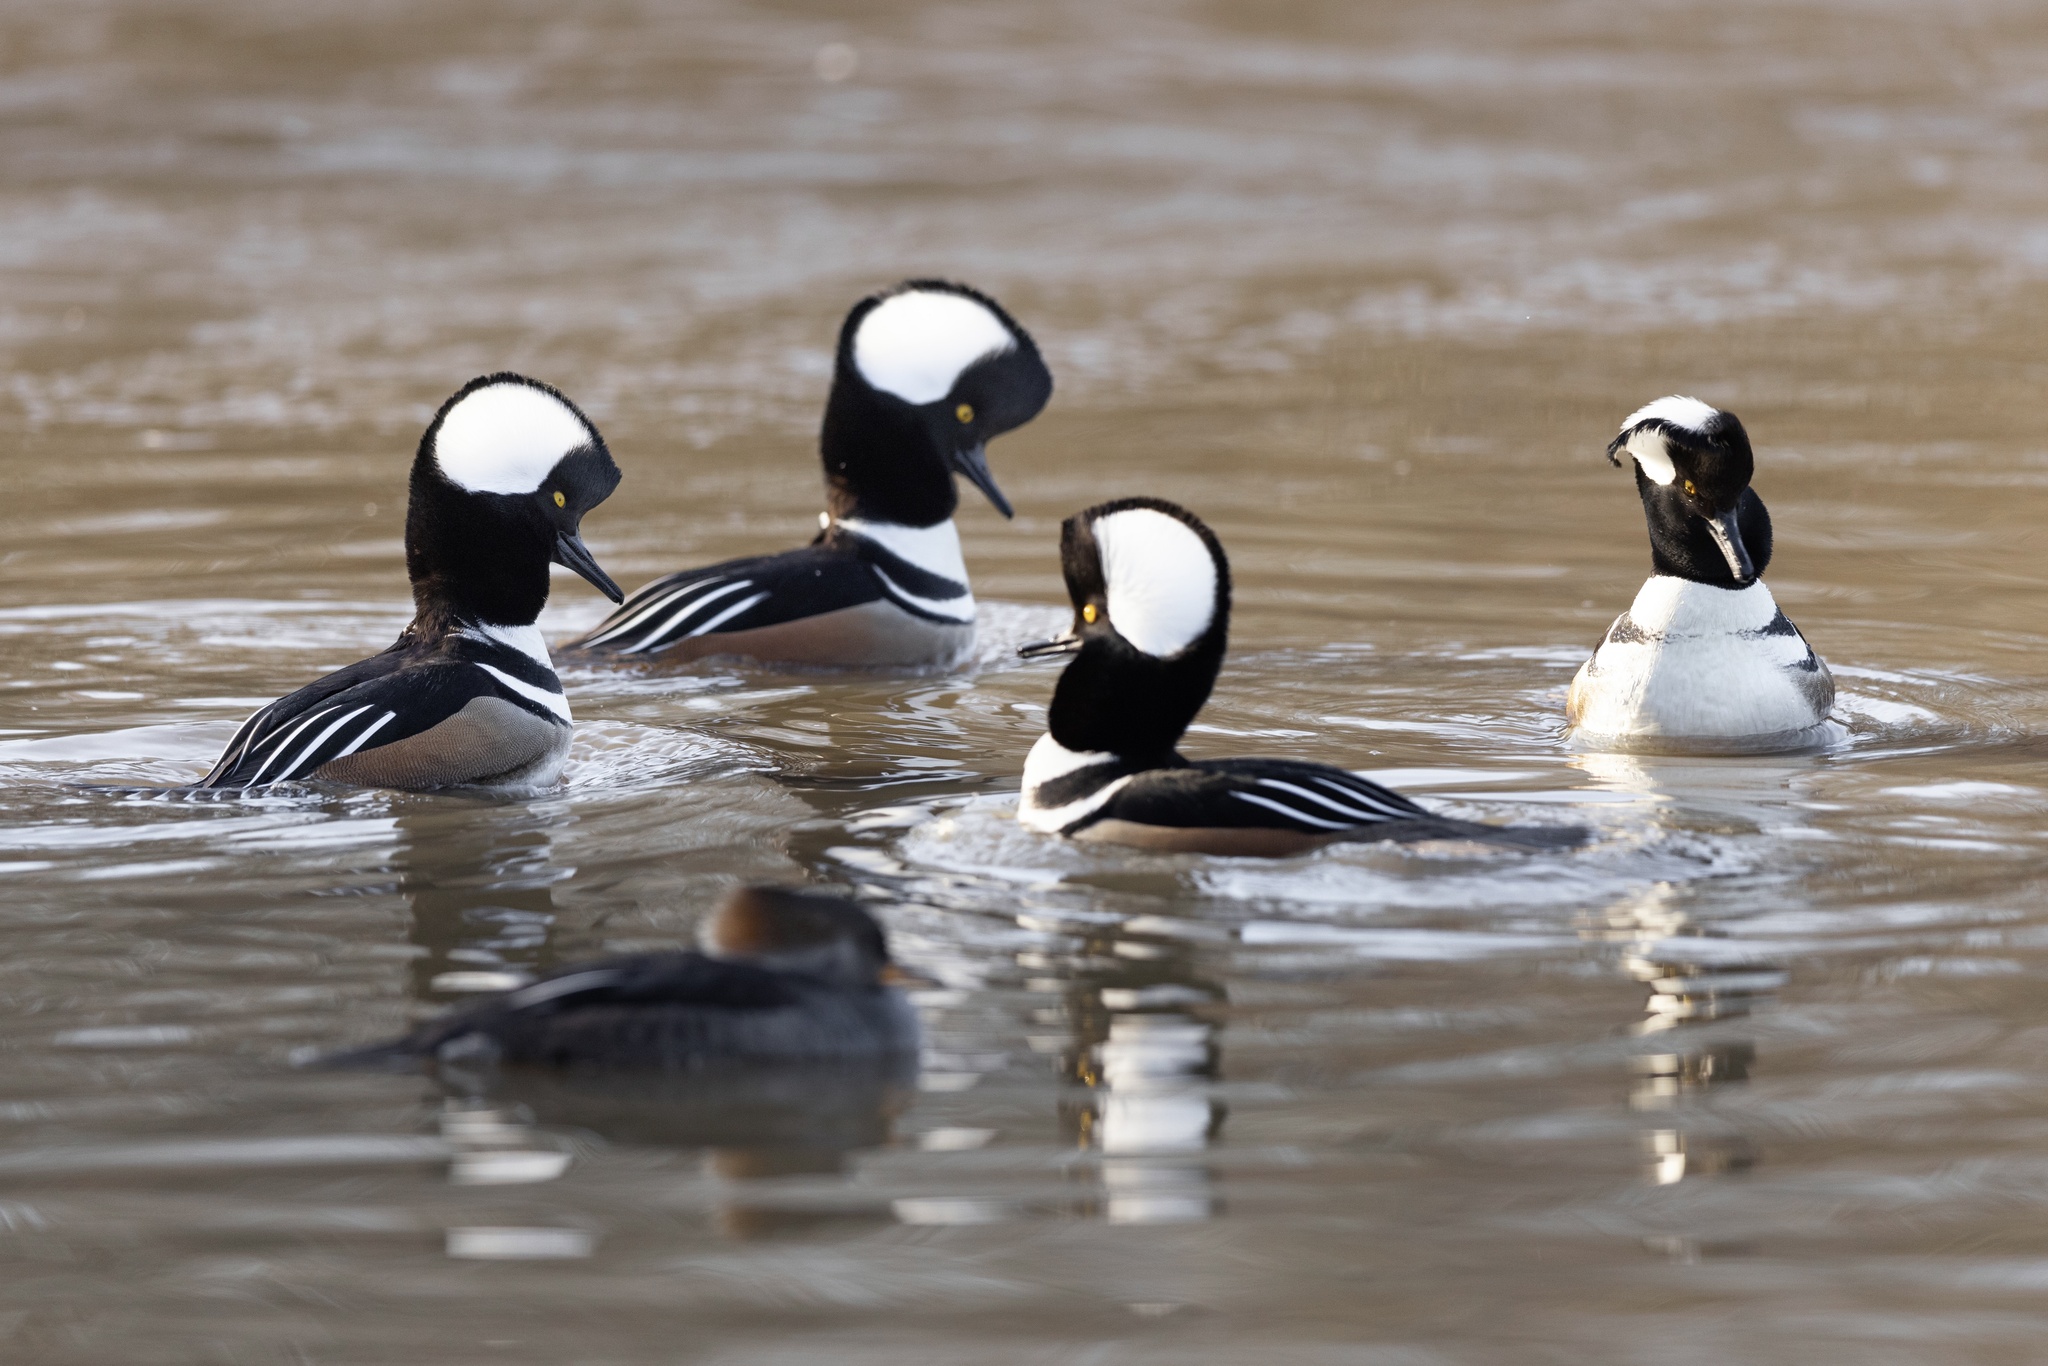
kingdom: Animalia
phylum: Chordata
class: Aves
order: Anseriformes
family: Anatidae
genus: Lophodytes
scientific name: Lophodytes cucullatus
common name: Hooded merganser
